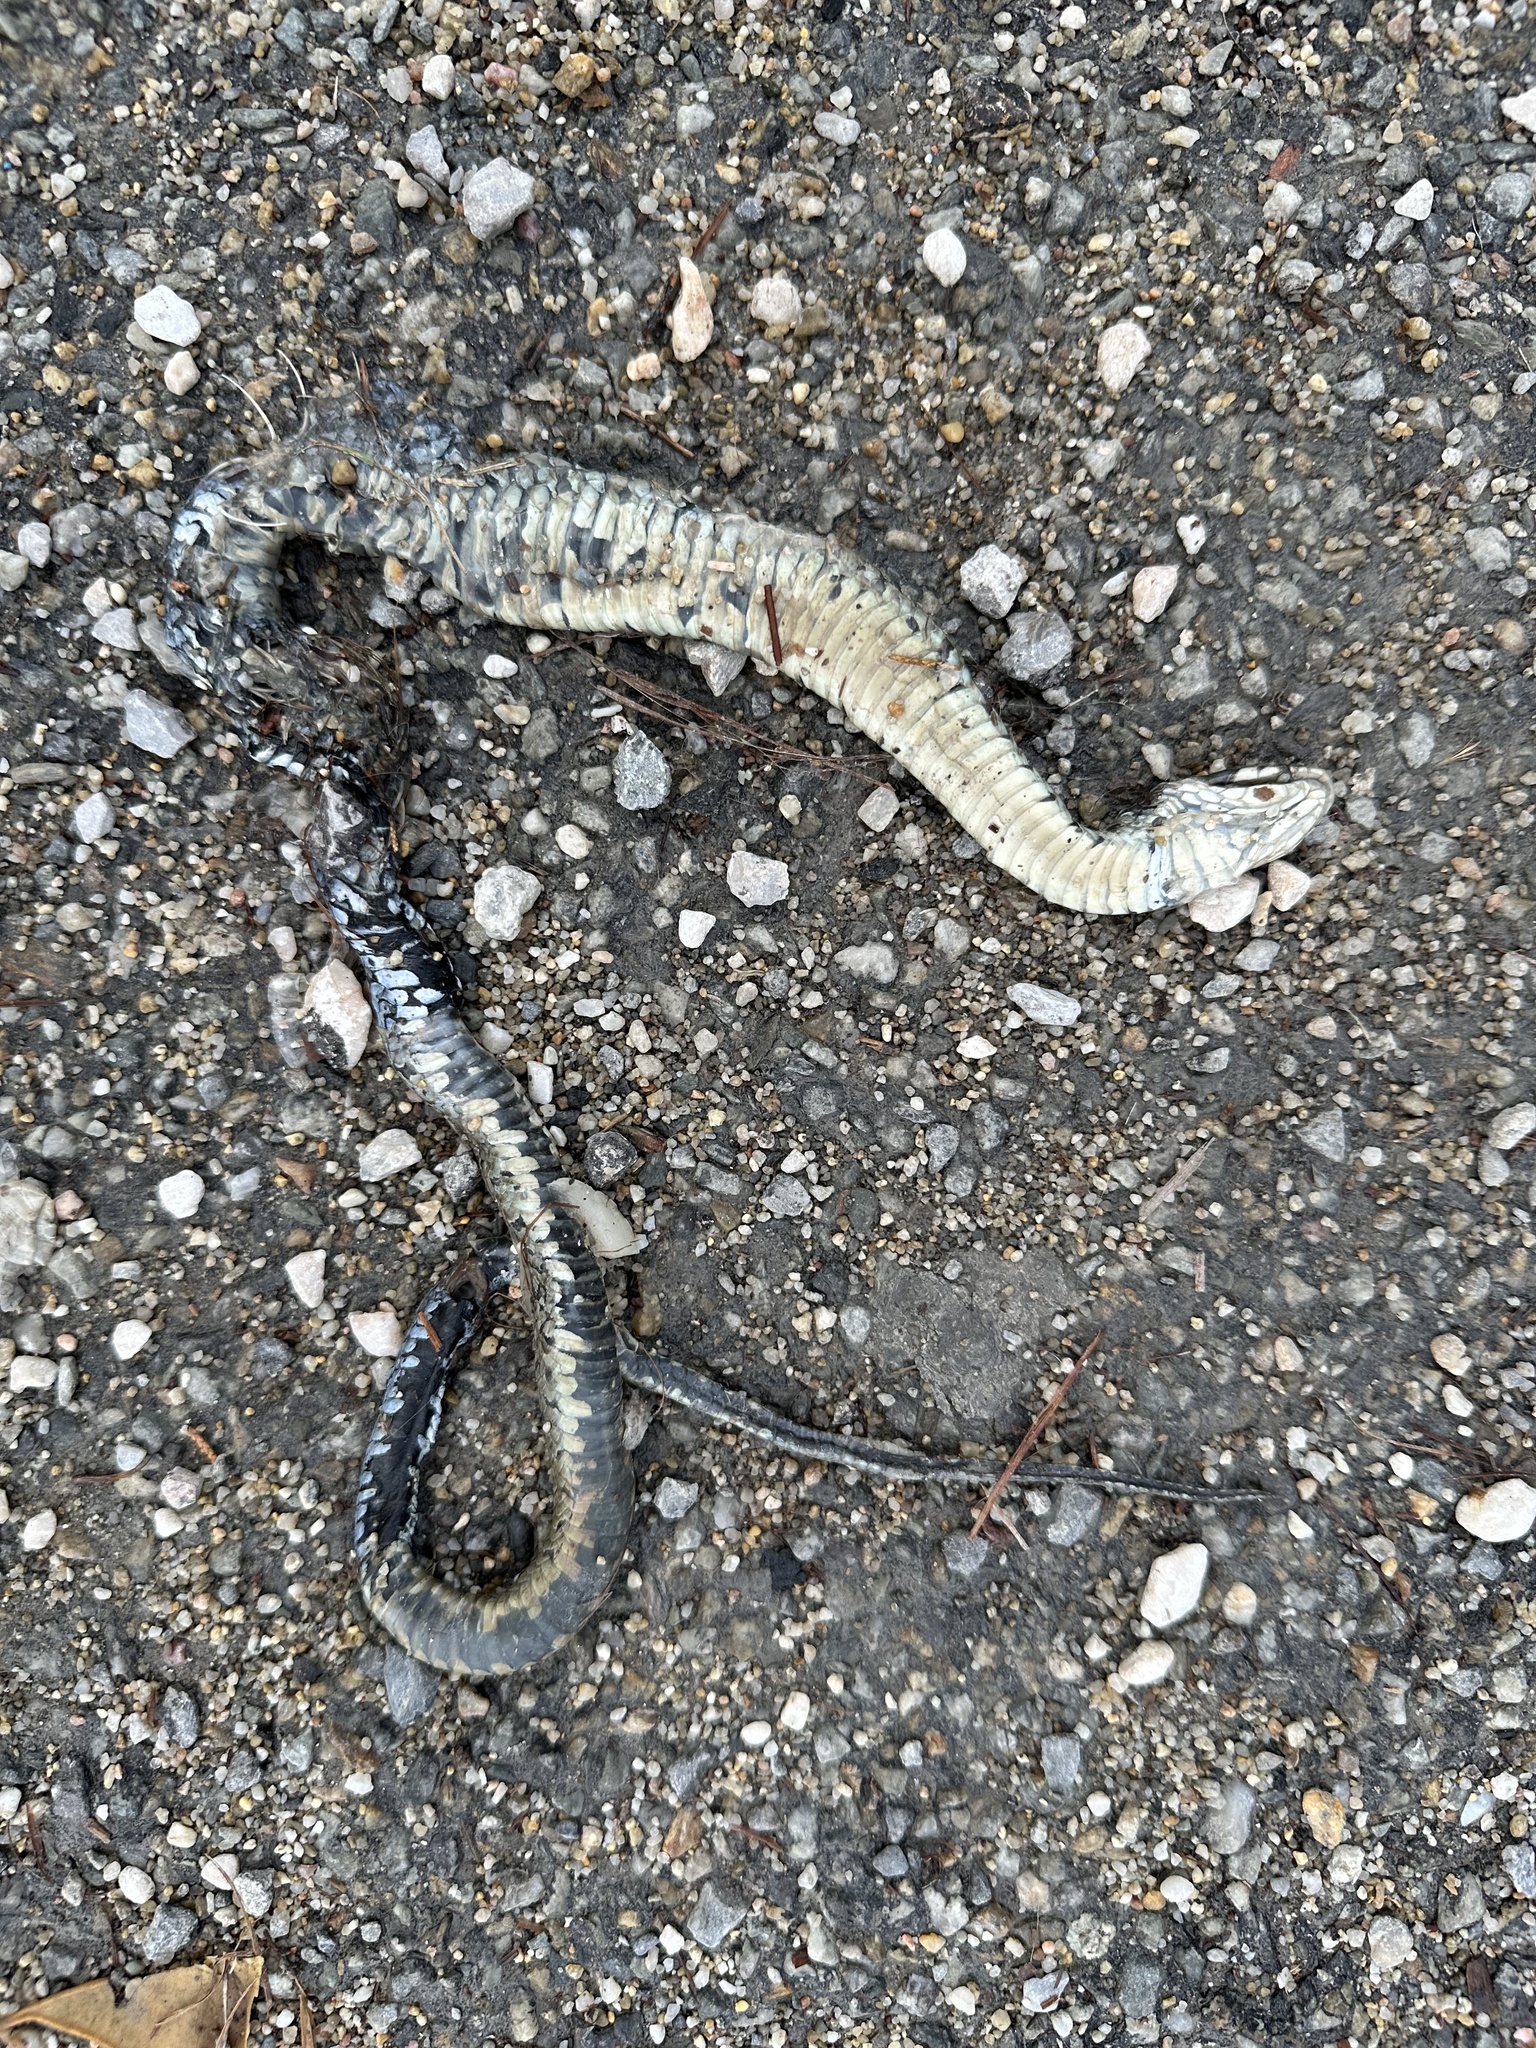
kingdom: Animalia
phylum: Chordata
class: Squamata
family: Colubridae
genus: Natrix
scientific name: Natrix astreptophora
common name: Red-eyed grass snake
